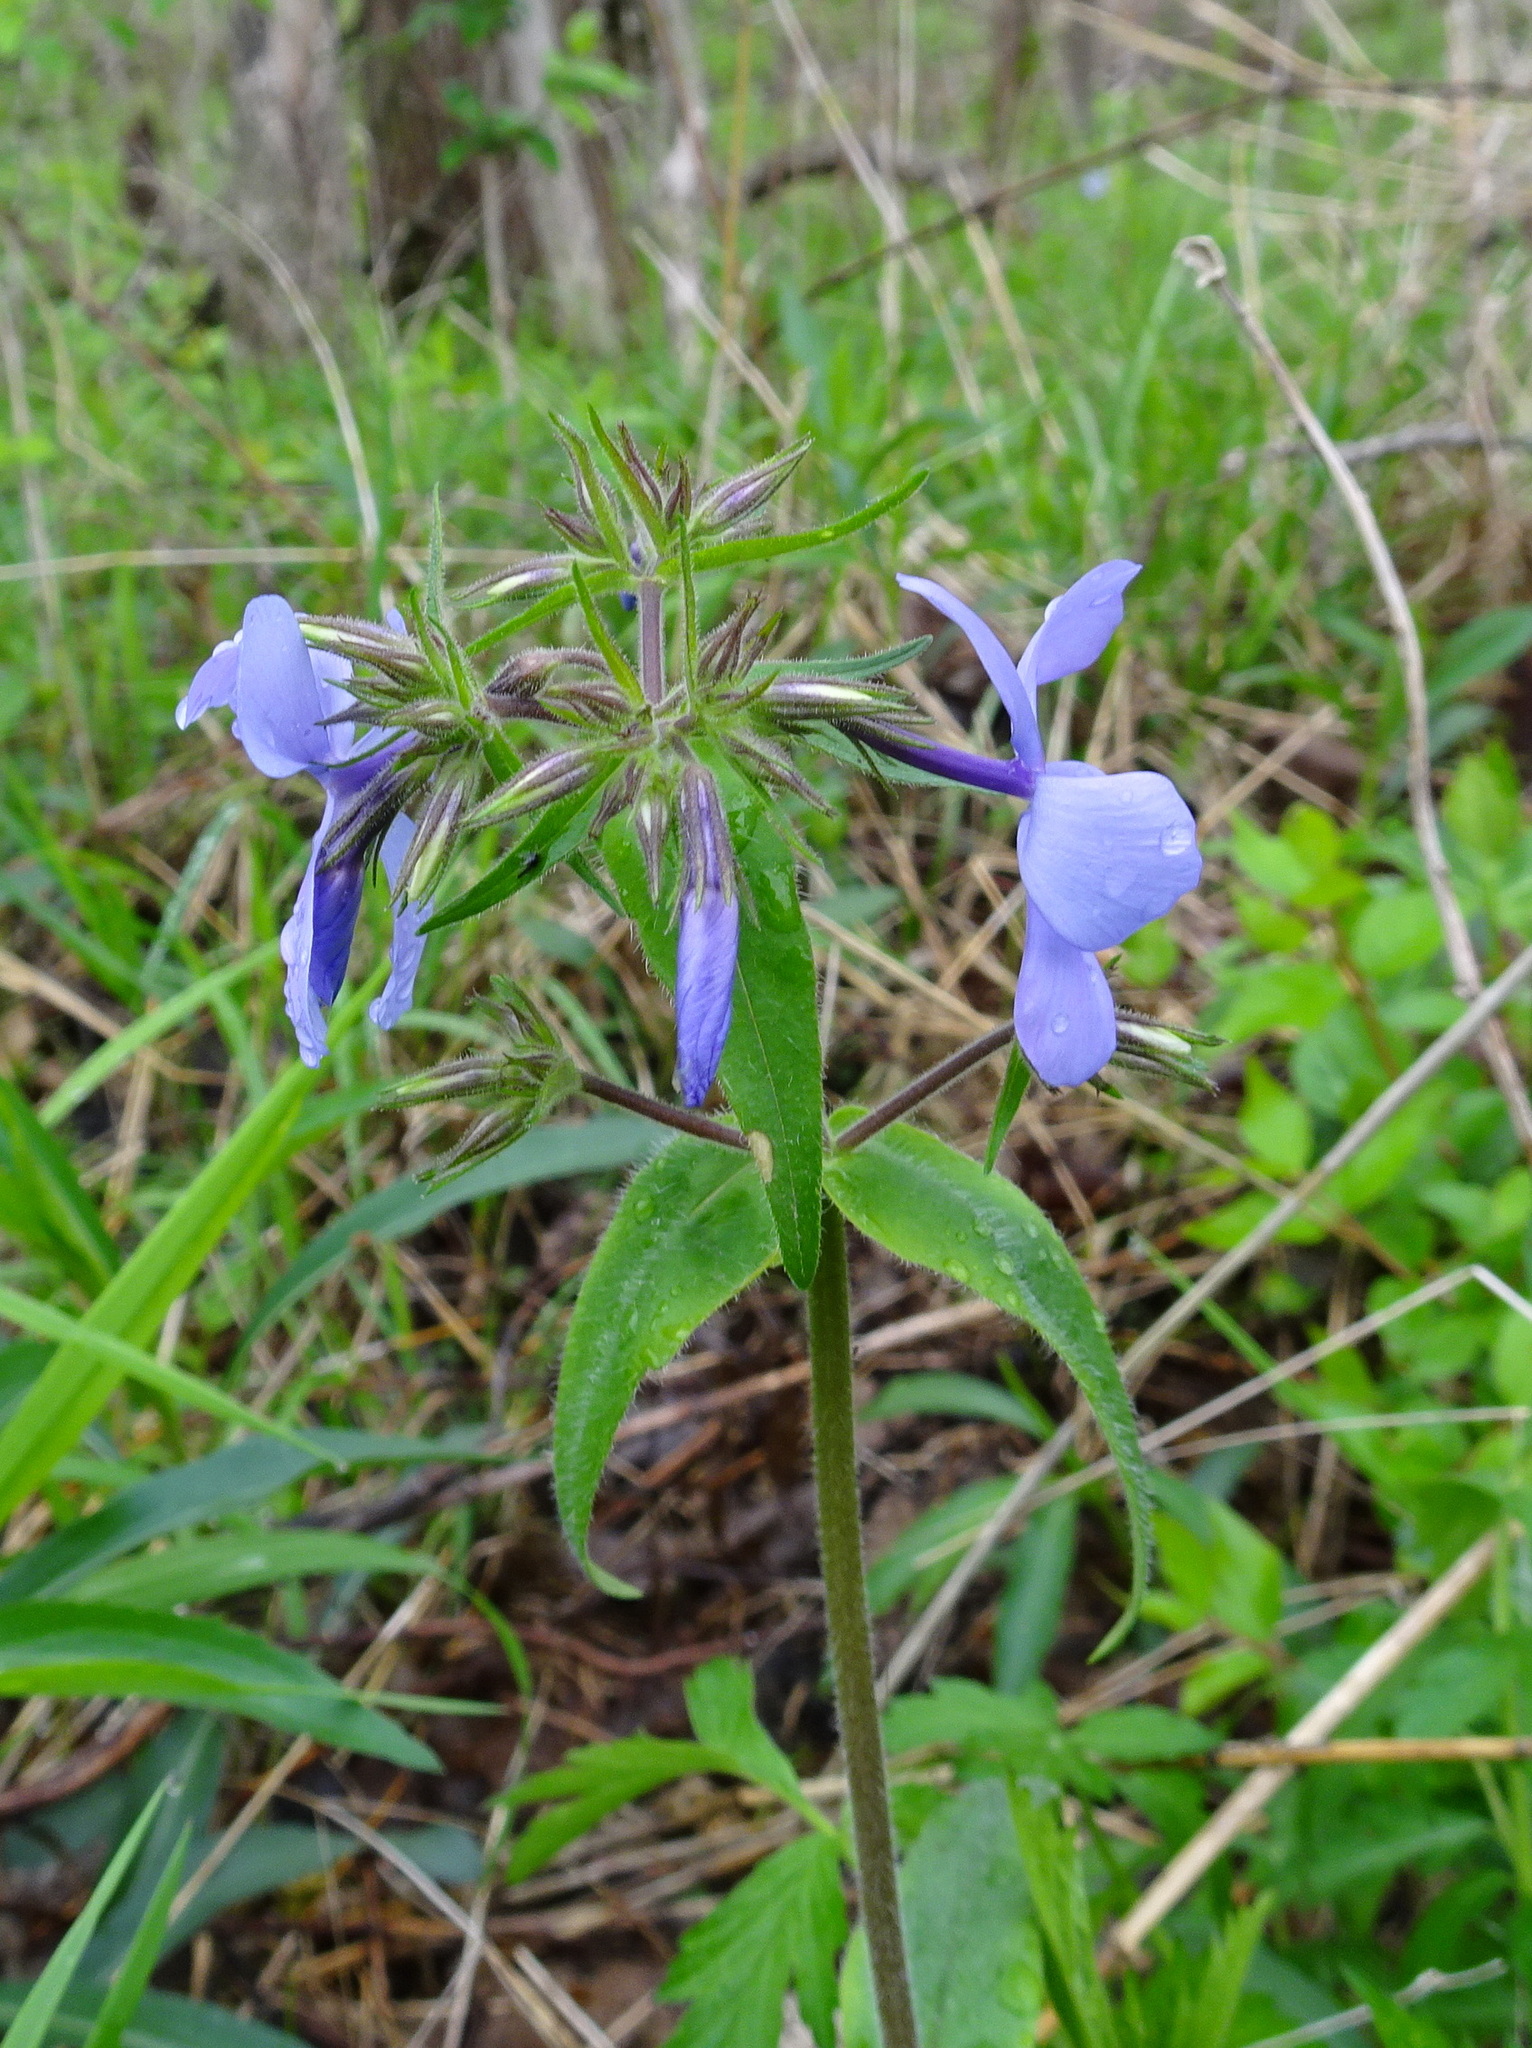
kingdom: Plantae
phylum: Tracheophyta
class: Magnoliopsida
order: Ericales
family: Polemoniaceae
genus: Phlox
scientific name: Phlox divaricata
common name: Blue phlox
